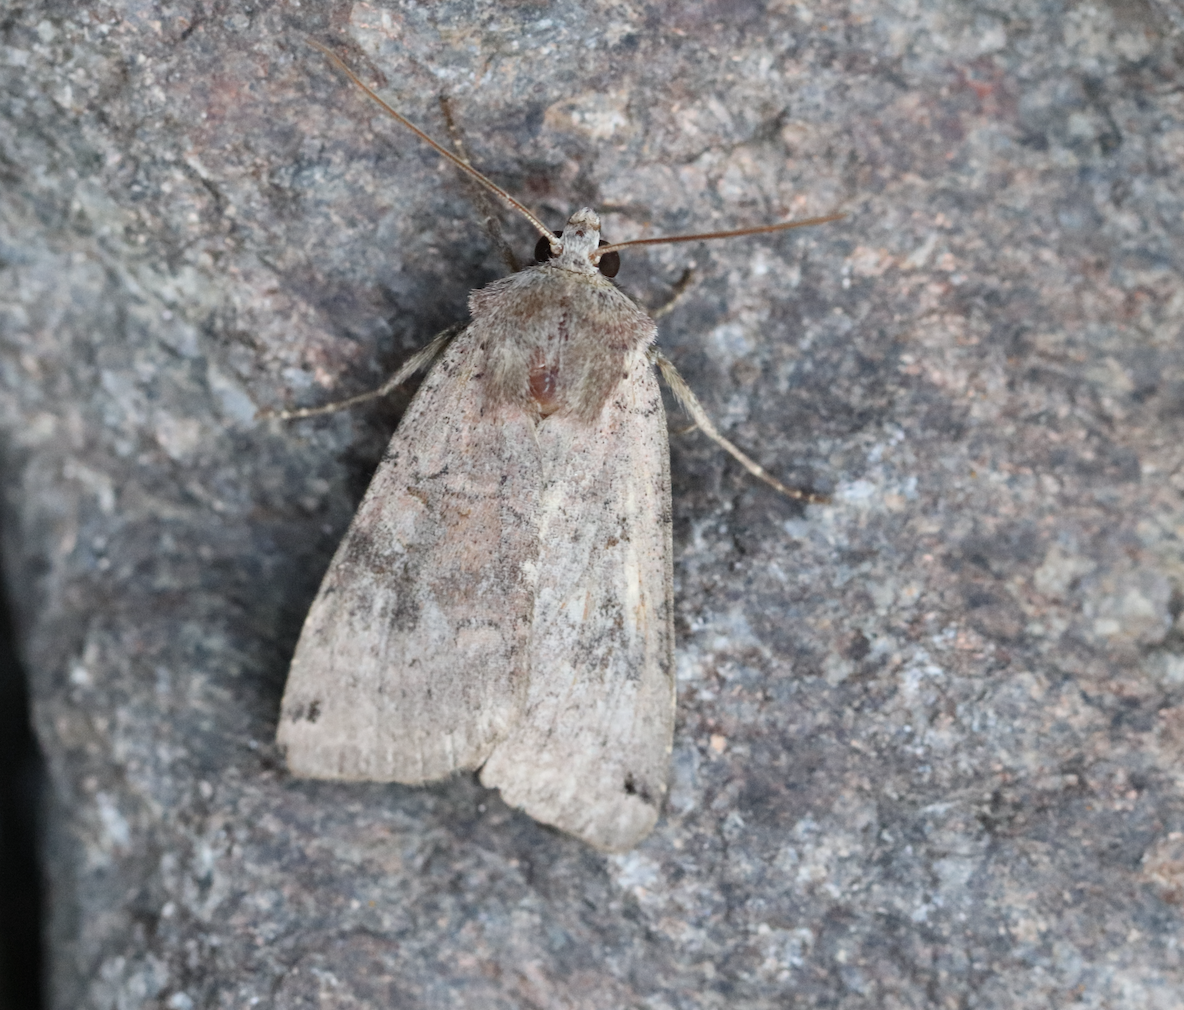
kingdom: Animalia
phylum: Arthropoda
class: Insecta
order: Lepidoptera
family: Noctuidae
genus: Xestia
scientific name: Xestia baja
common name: Dotted clay
